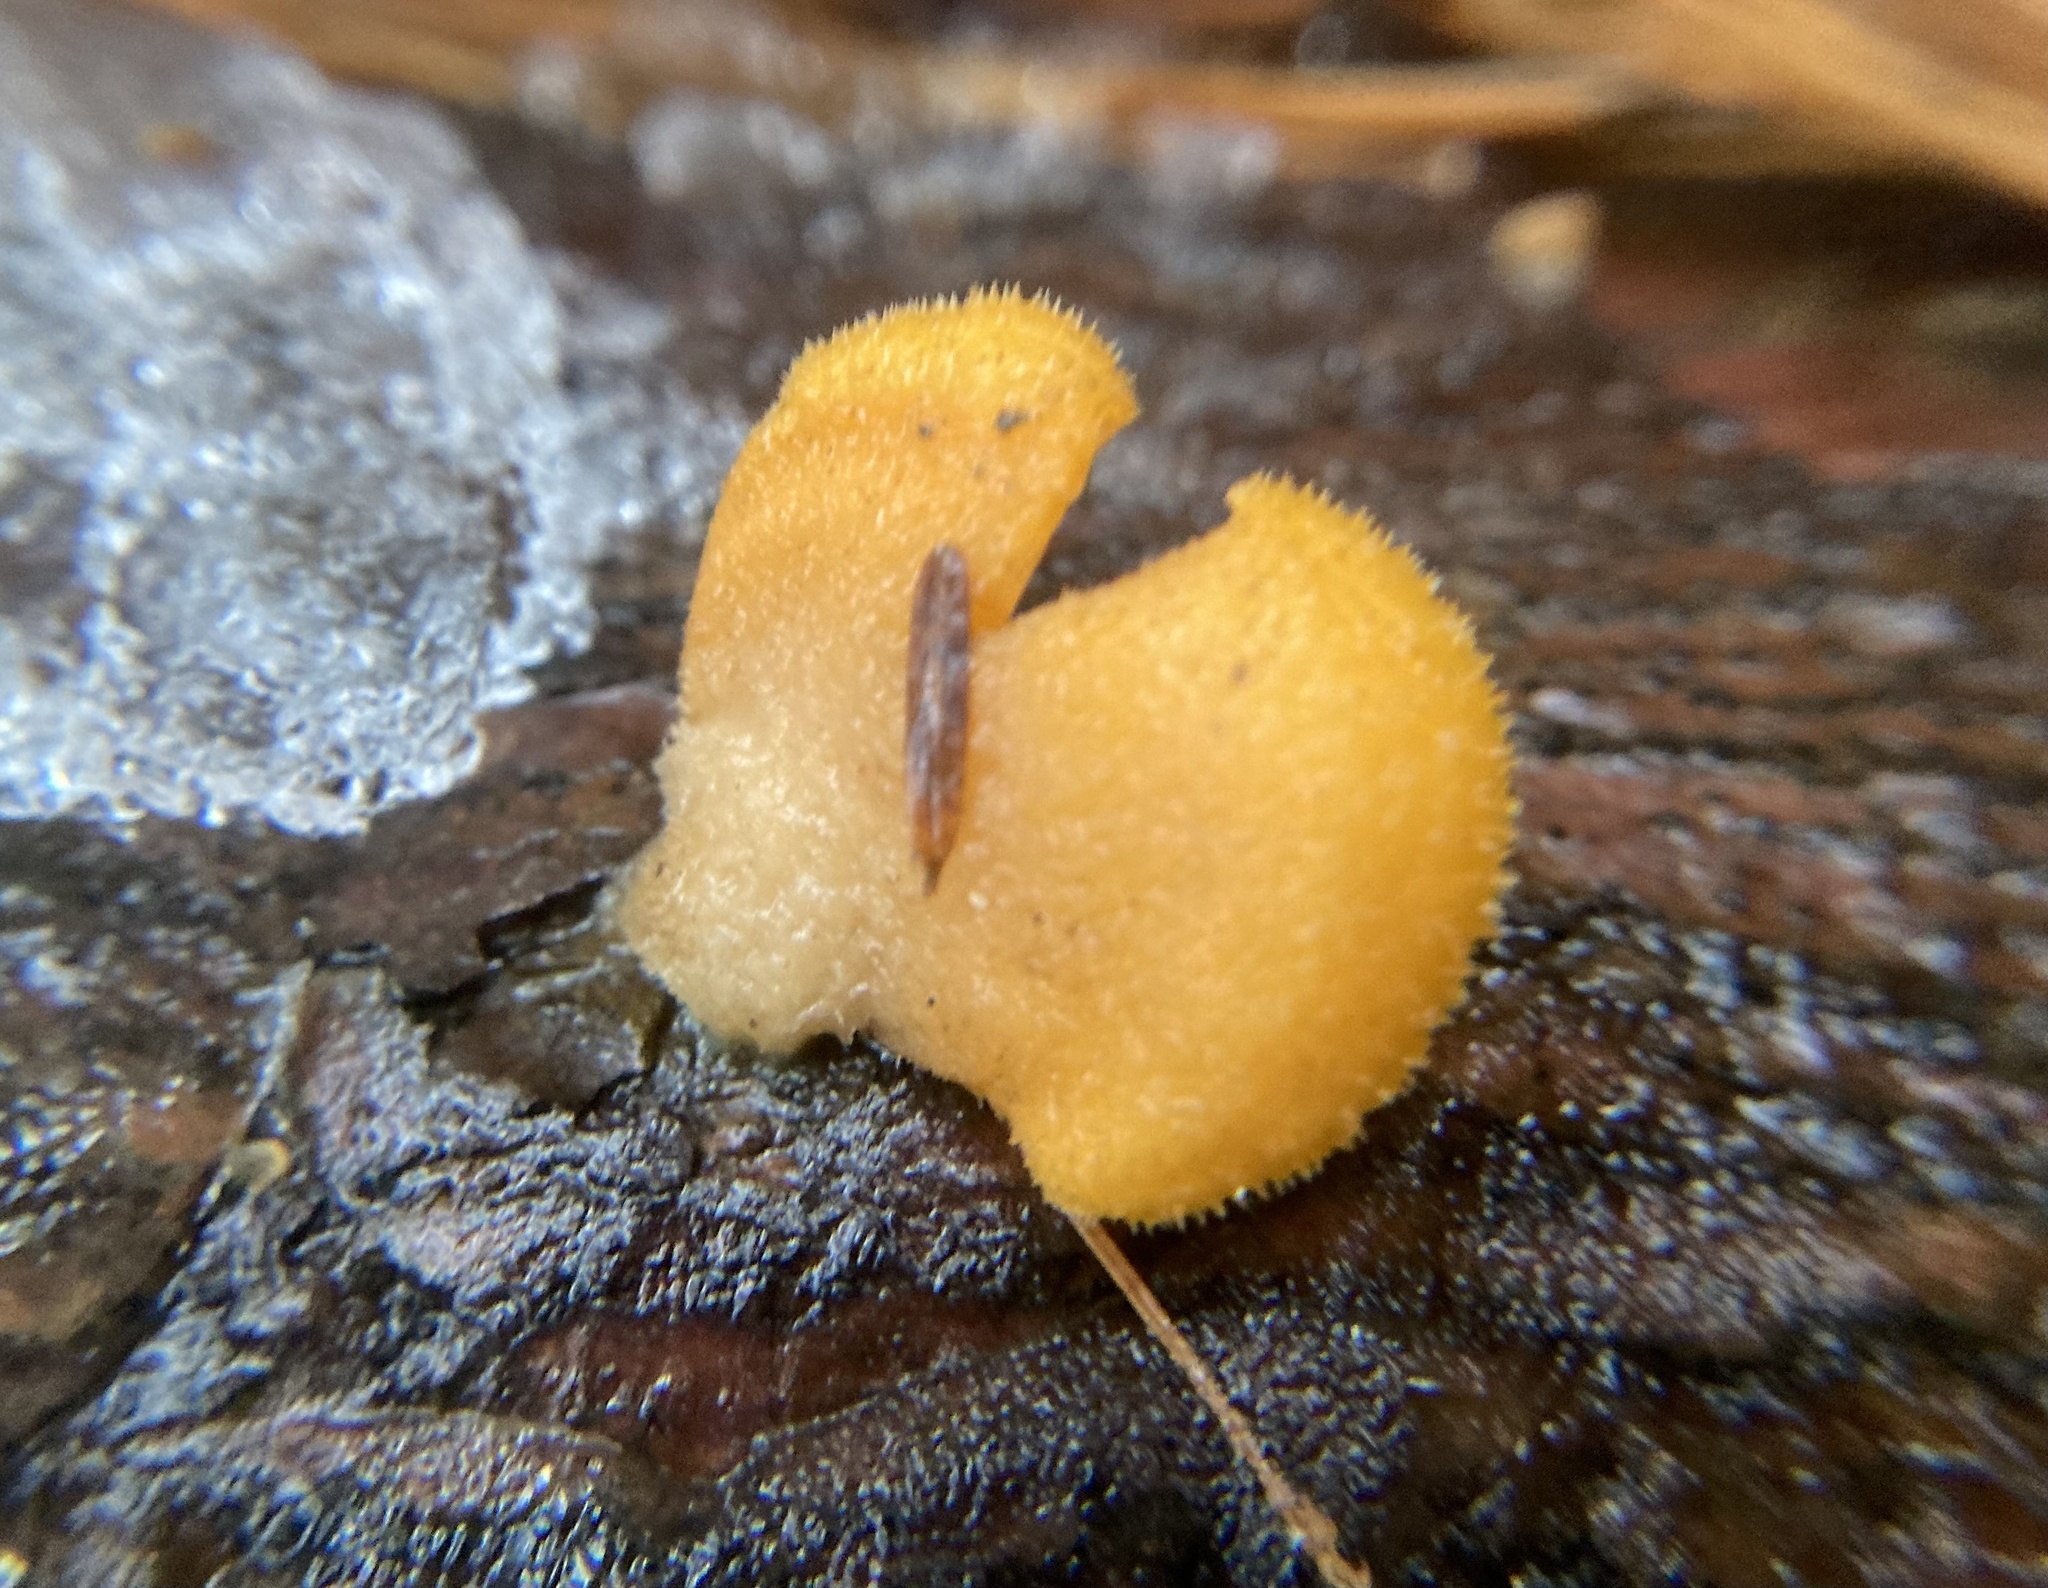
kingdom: Fungi
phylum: Basidiomycota
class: Agaricomycetes
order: Agaricales
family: Phyllotopsidaceae
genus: Phyllotopsis
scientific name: Phyllotopsis nidulans
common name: Orange mock oyster
